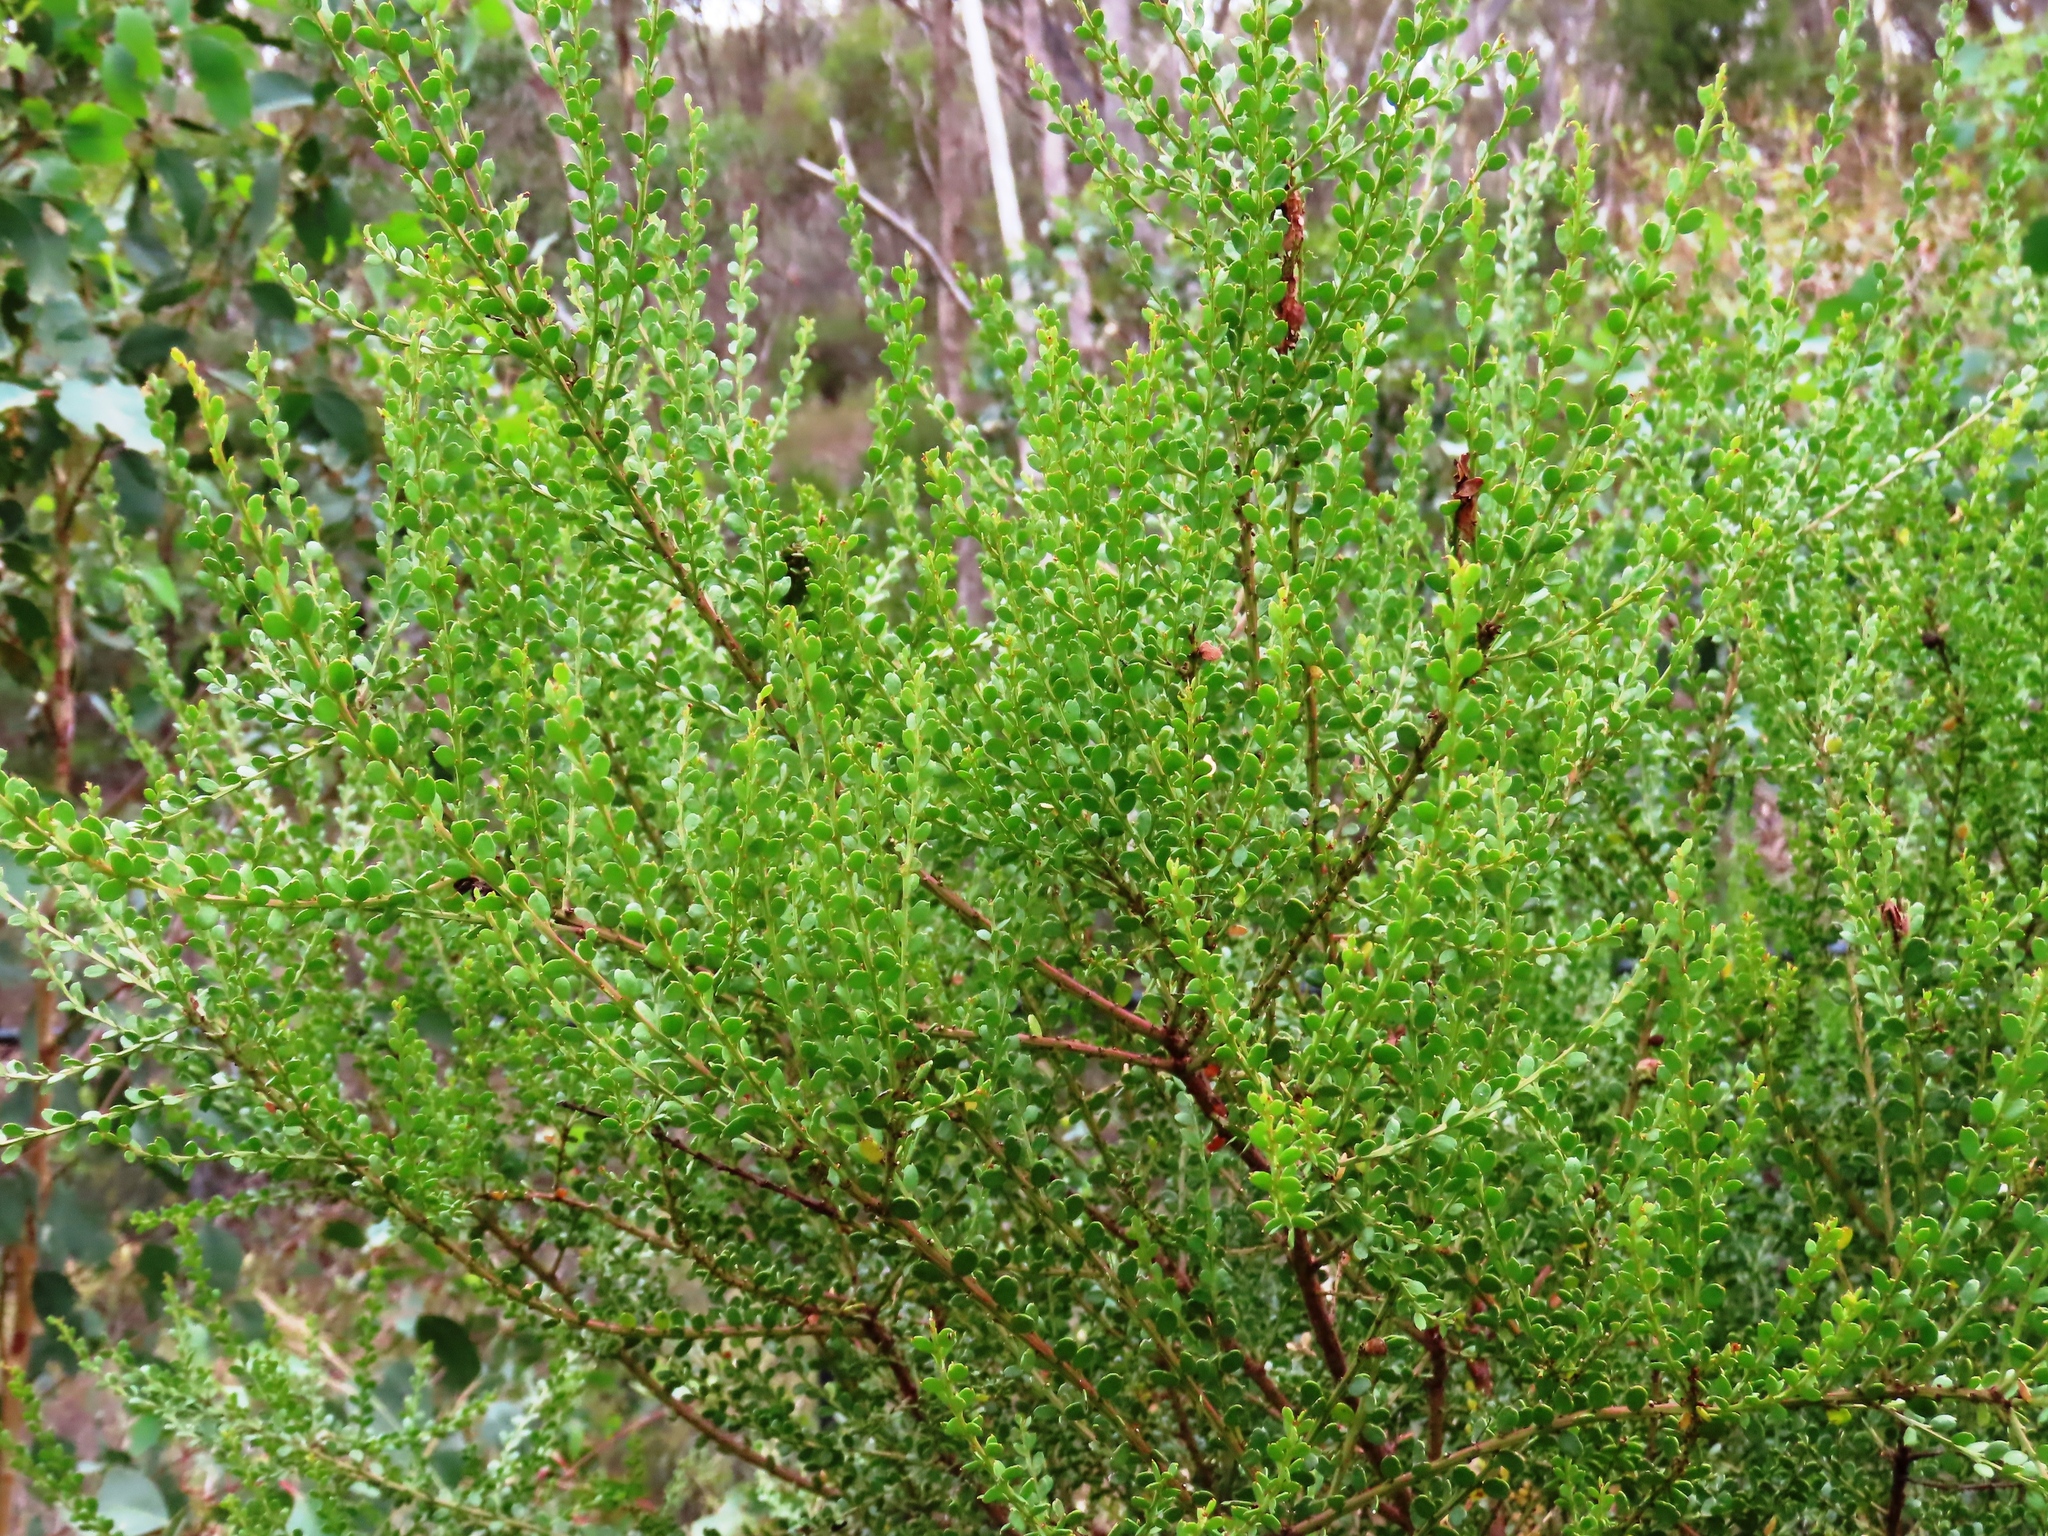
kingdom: Plantae
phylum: Tracheophyta
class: Magnoliopsida
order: Fabales
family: Fabaceae
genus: Acacia
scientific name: Acacia acinacea
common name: Gold-dust acacia
